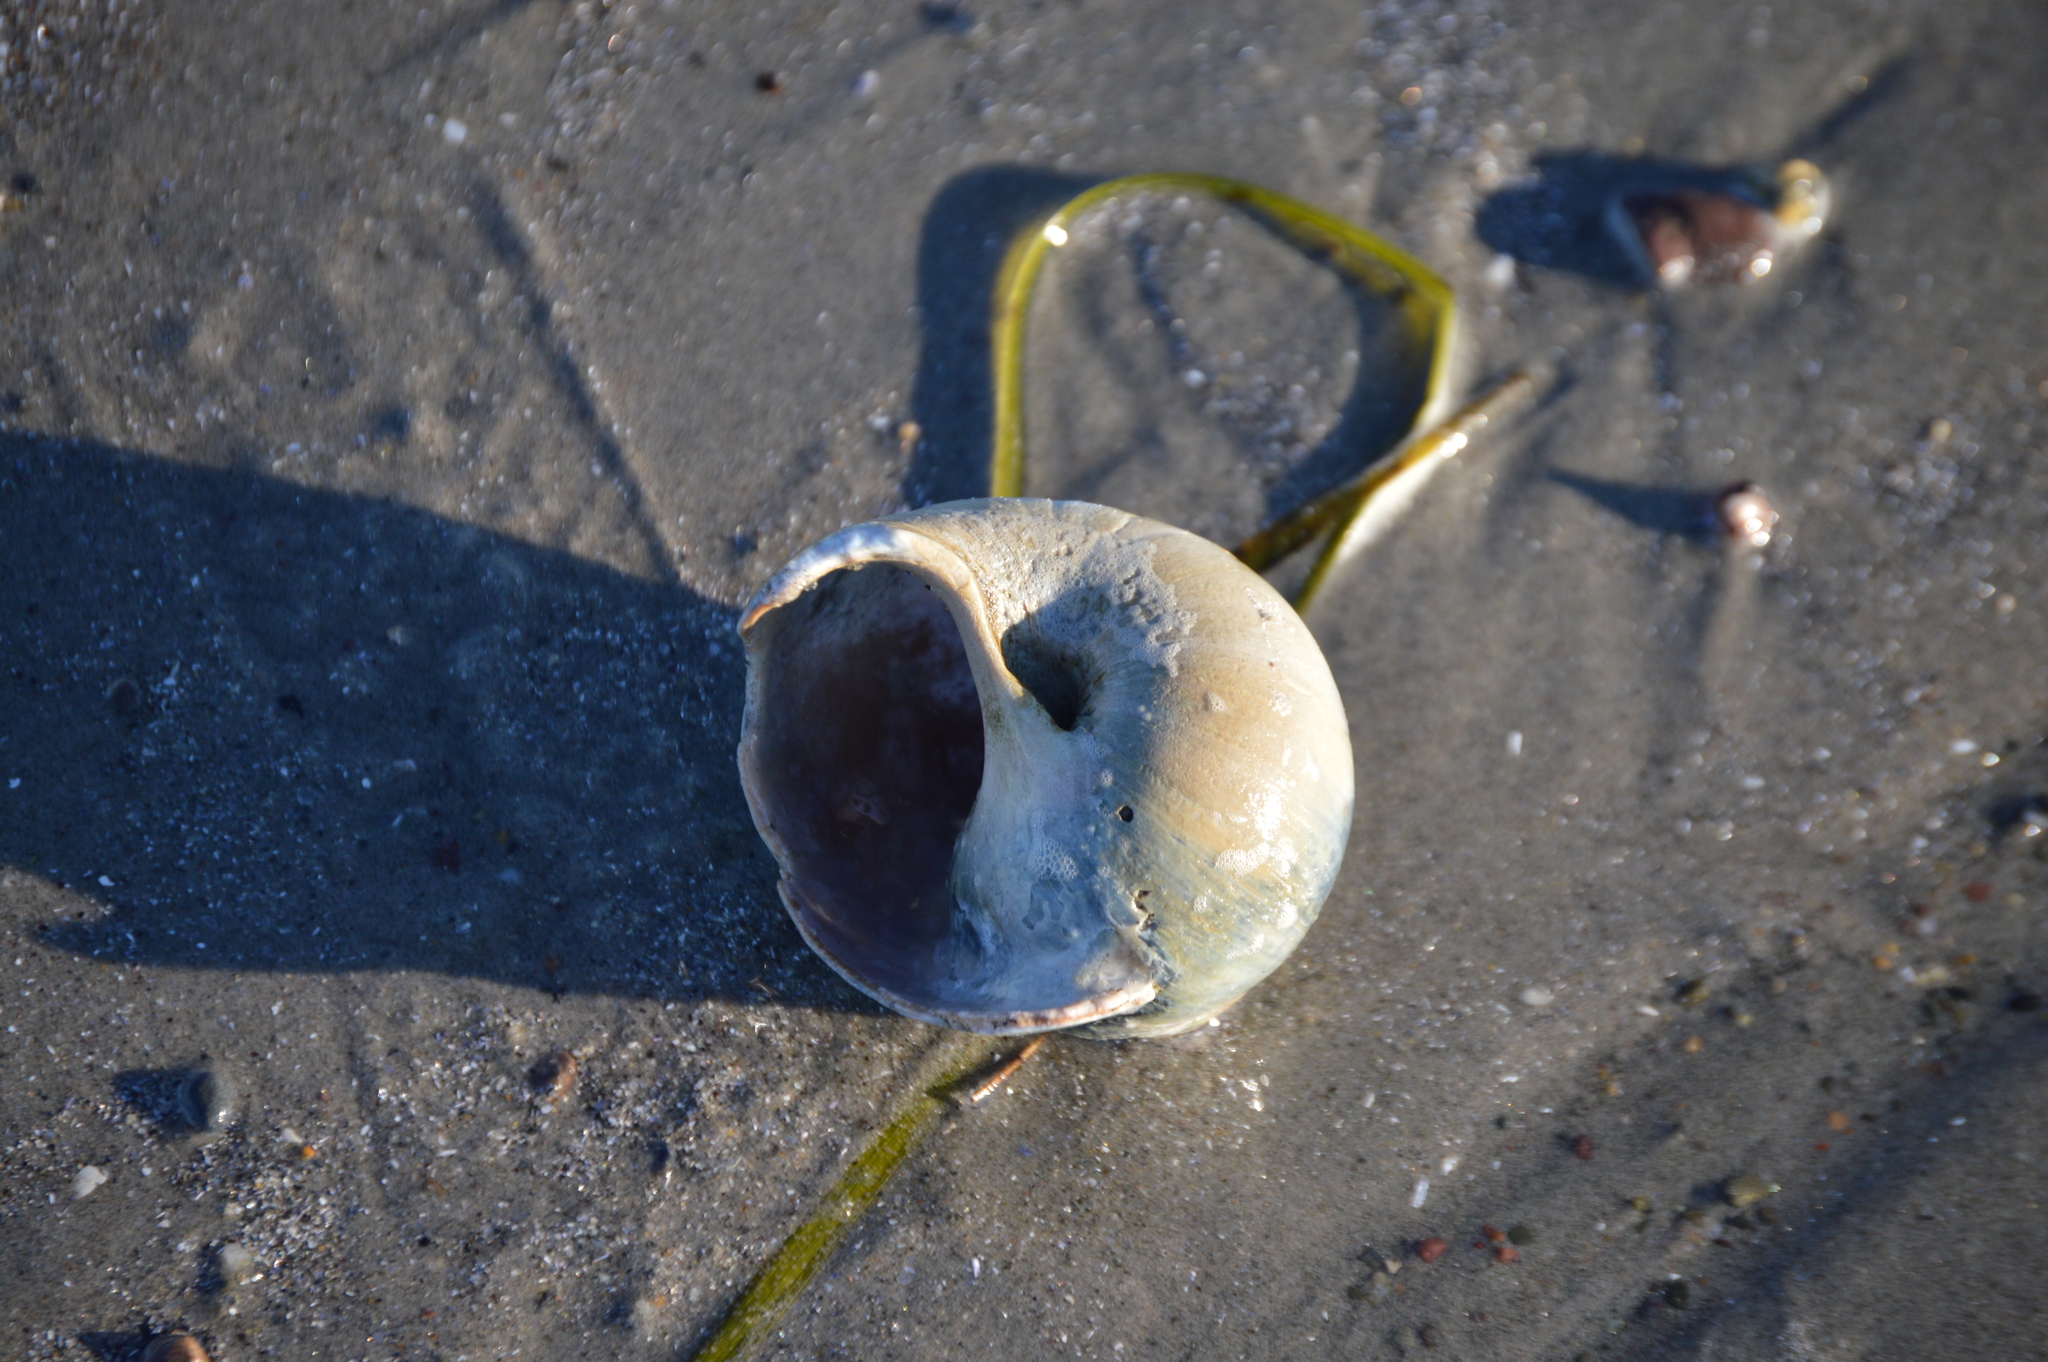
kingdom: Animalia
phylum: Mollusca
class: Gastropoda
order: Littorinimorpha
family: Naticidae
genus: Euspira
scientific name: Euspira heros
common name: Common northern moonsnail
